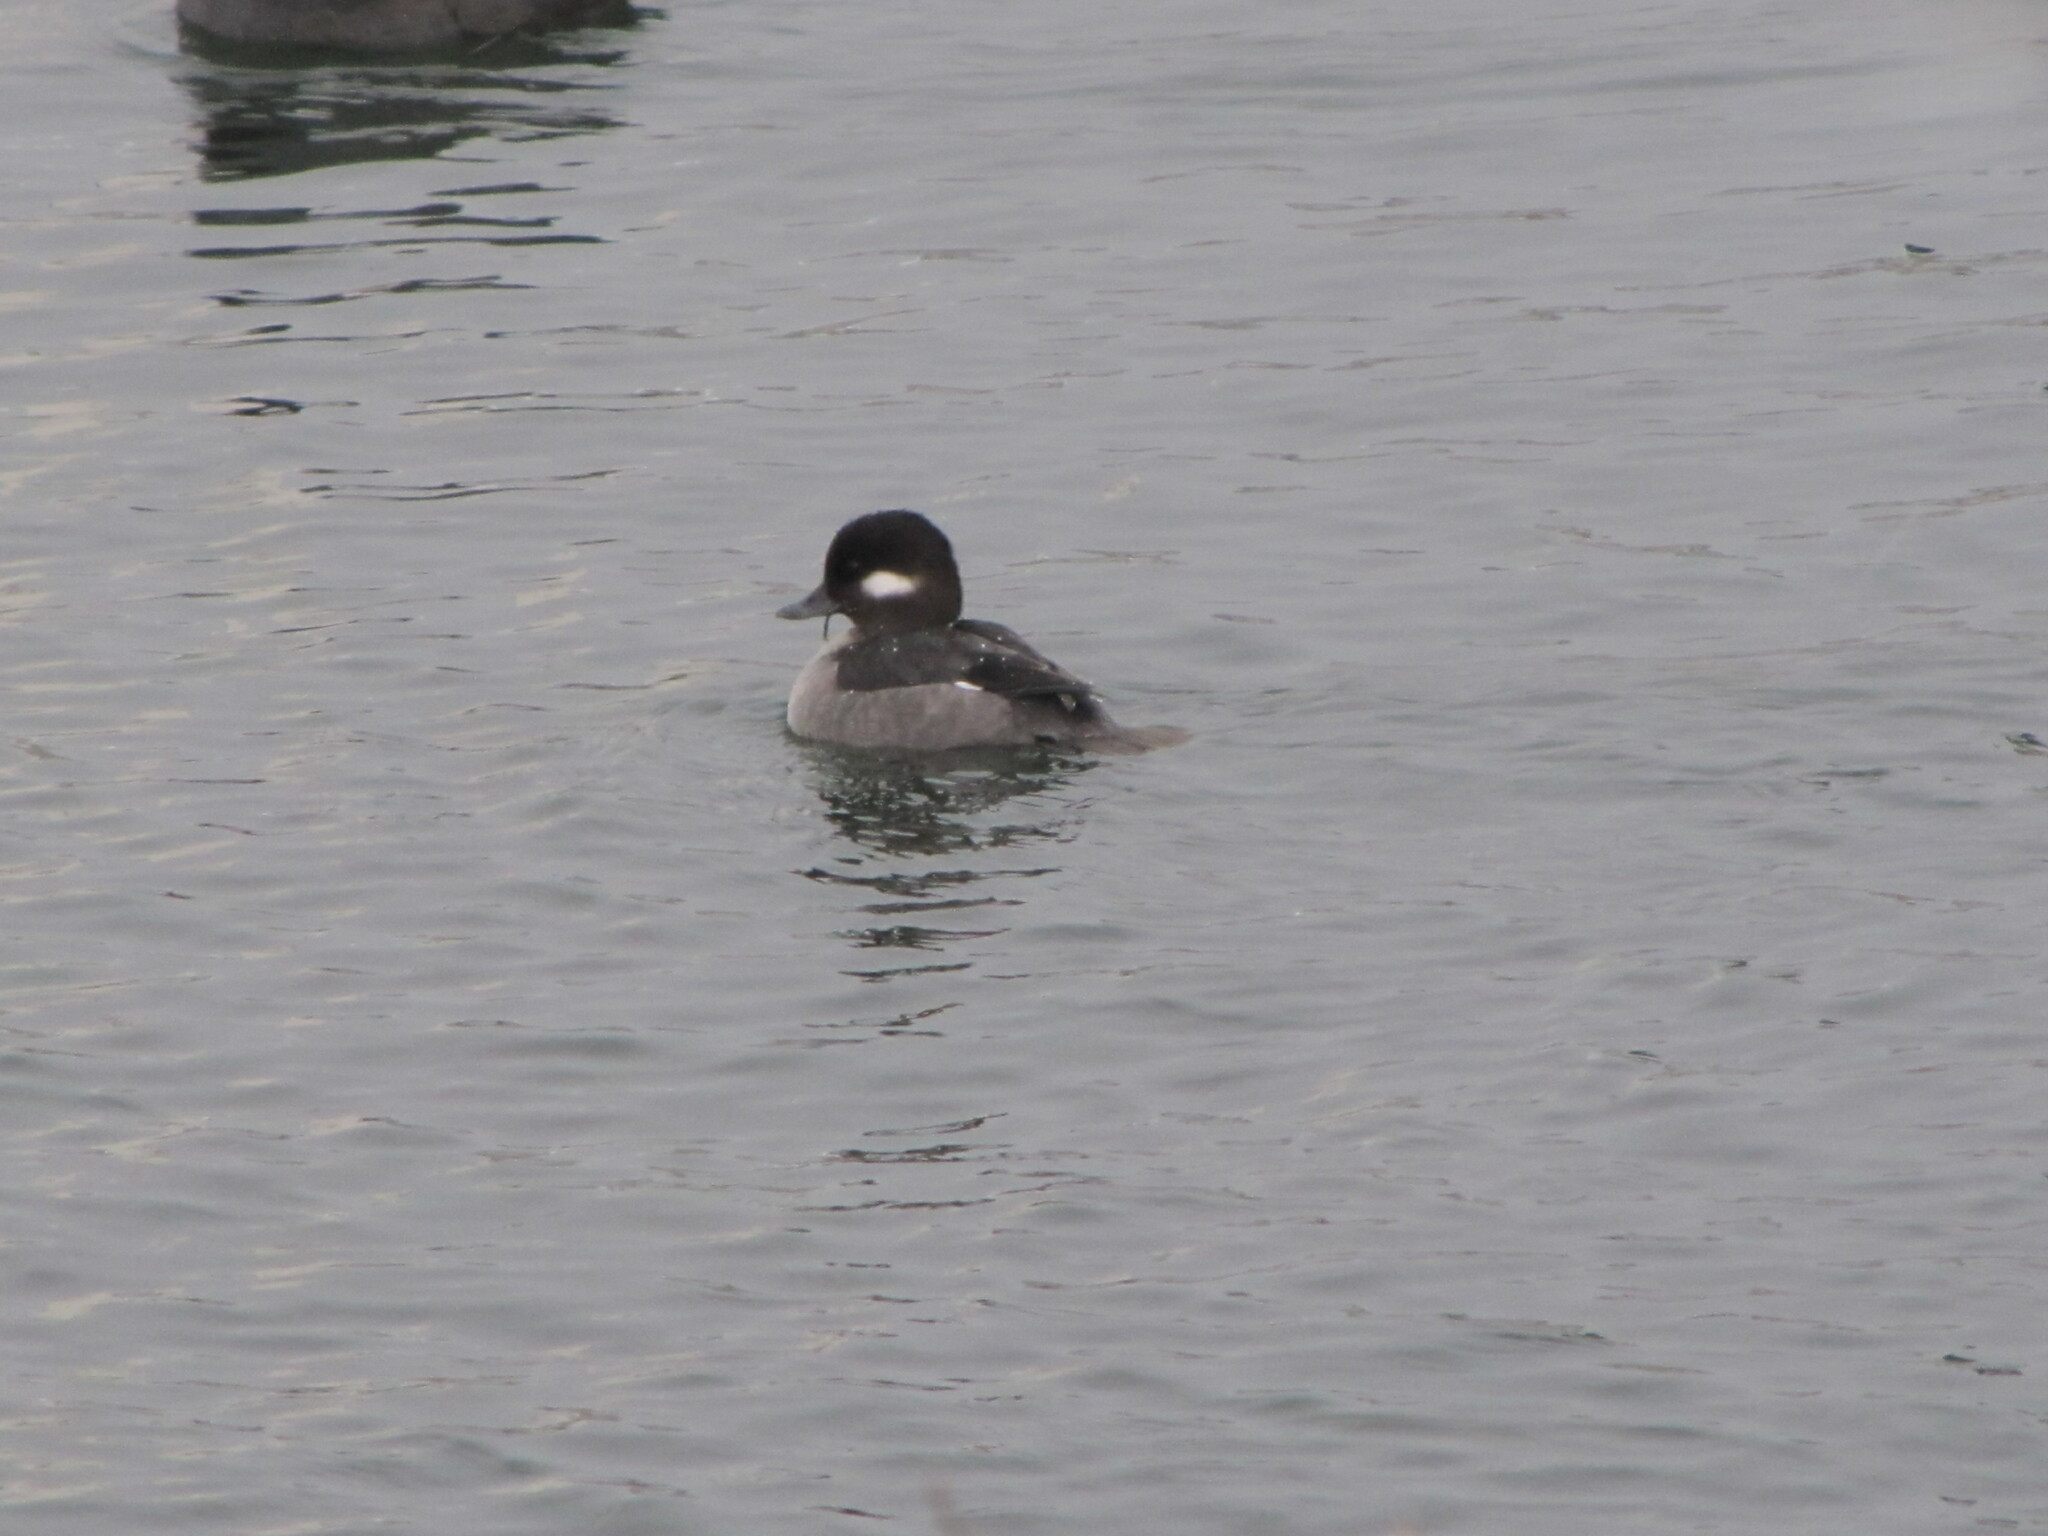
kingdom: Animalia
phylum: Chordata
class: Aves
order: Anseriformes
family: Anatidae
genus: Bucephala
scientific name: Bucephala albeola
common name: Bufflehead
